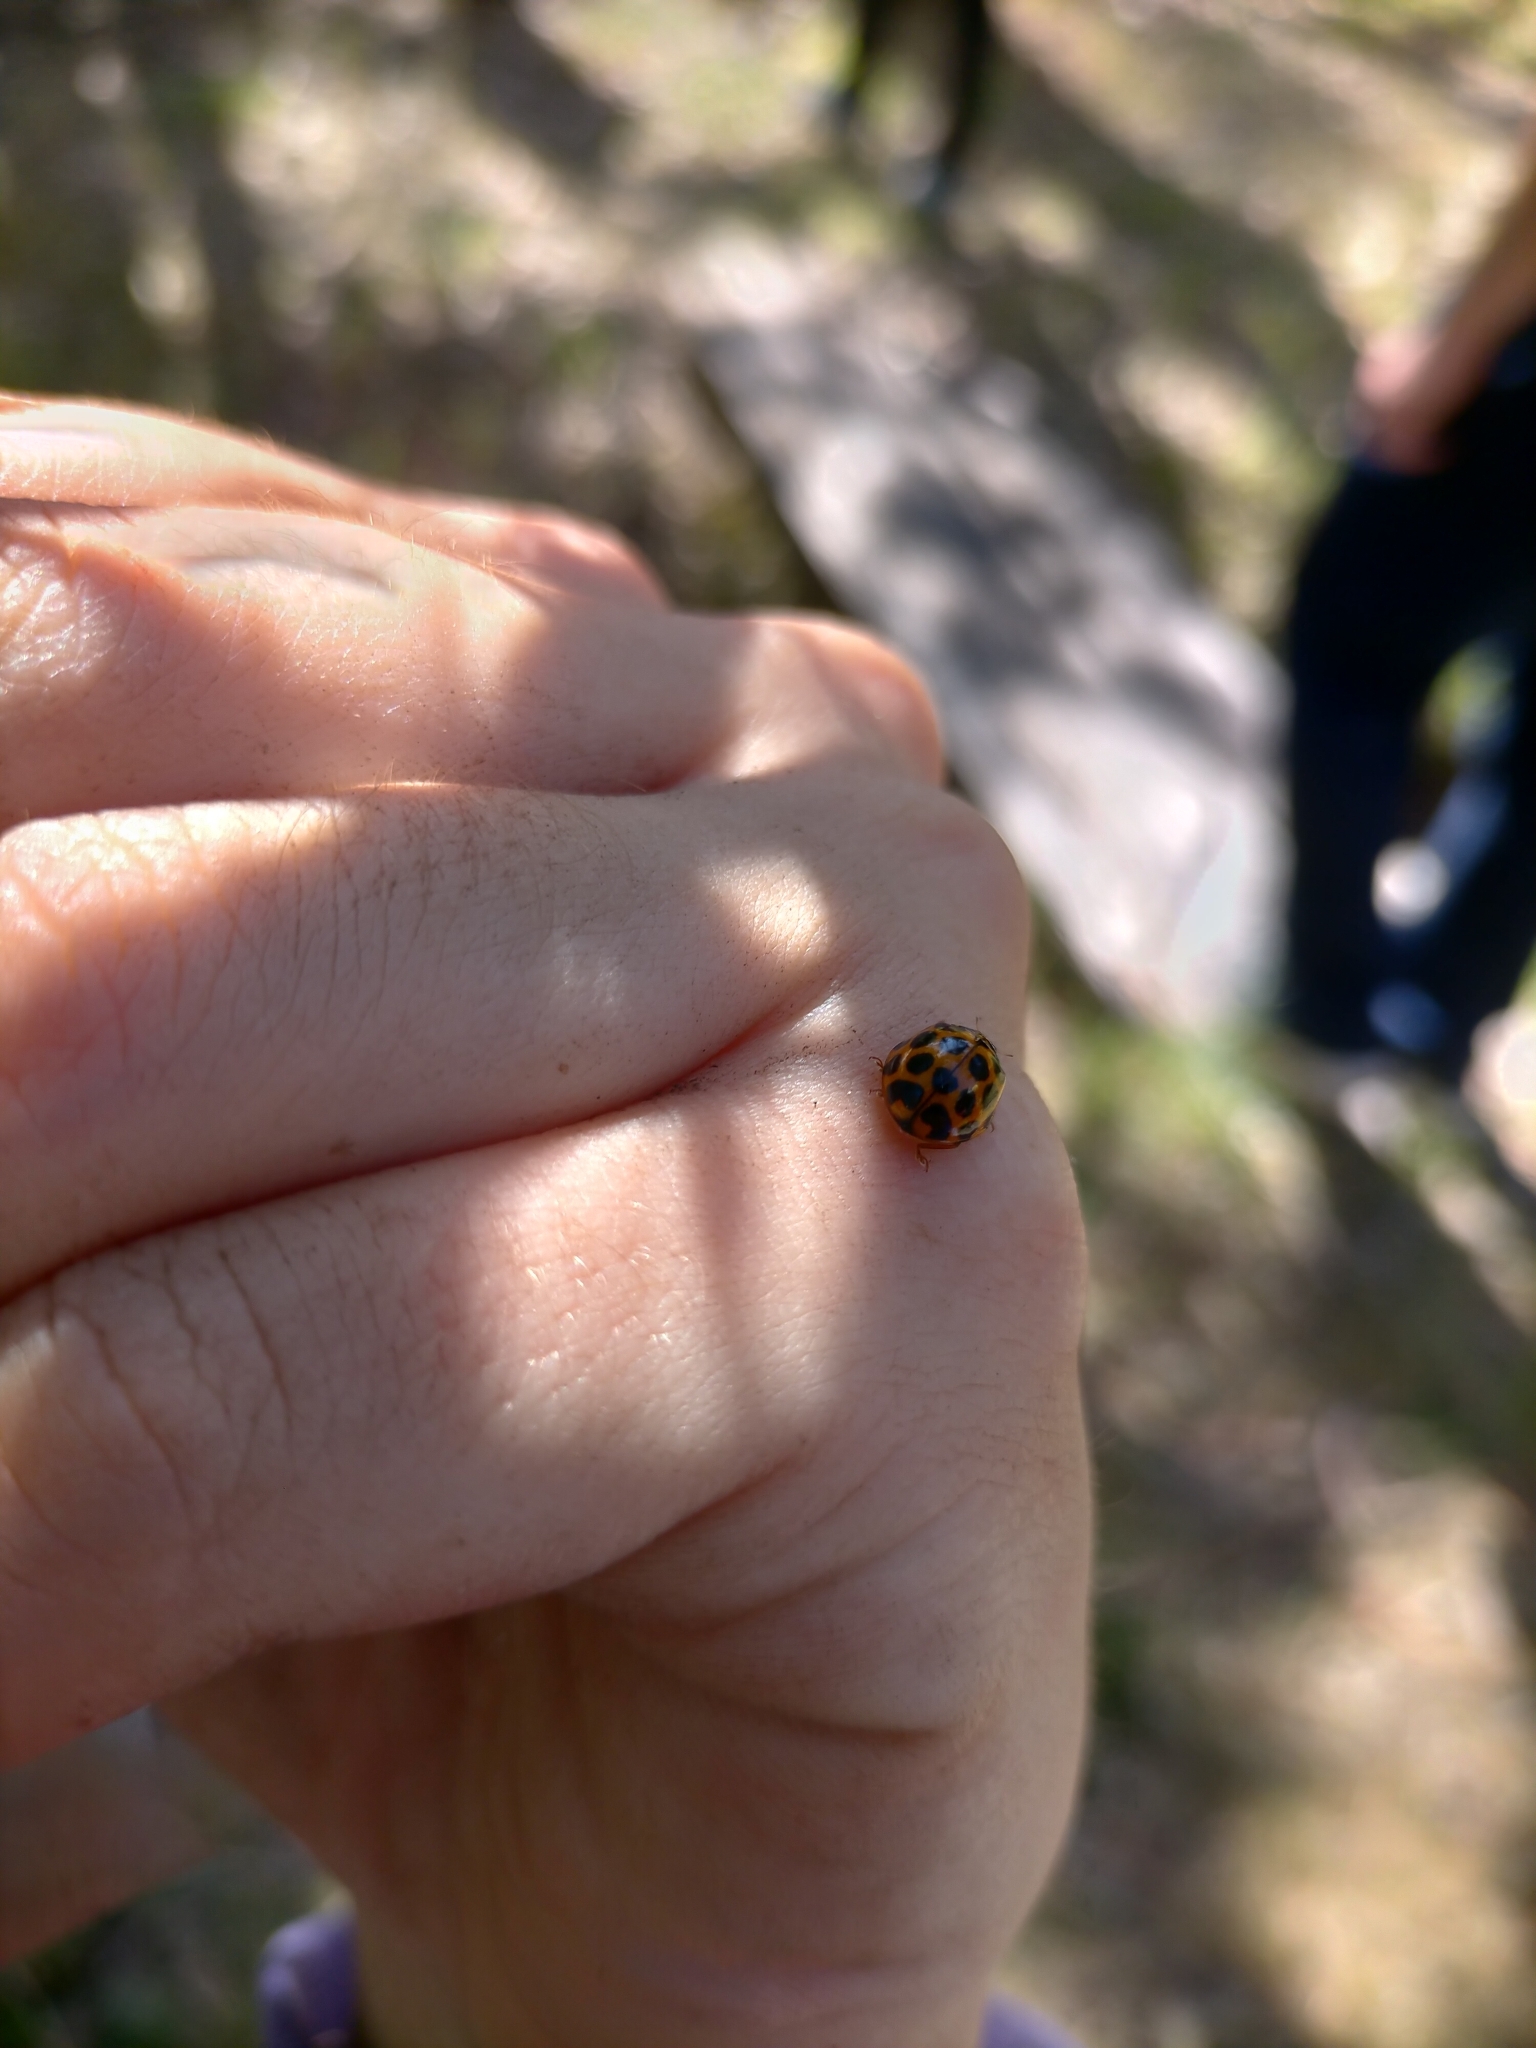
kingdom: Animalia
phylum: Arthropoda
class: Insecta
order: Coleoptera
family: Coccinellidae
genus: Harmonia
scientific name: Harmonia conformis
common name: Common spotted ladybird beetle
